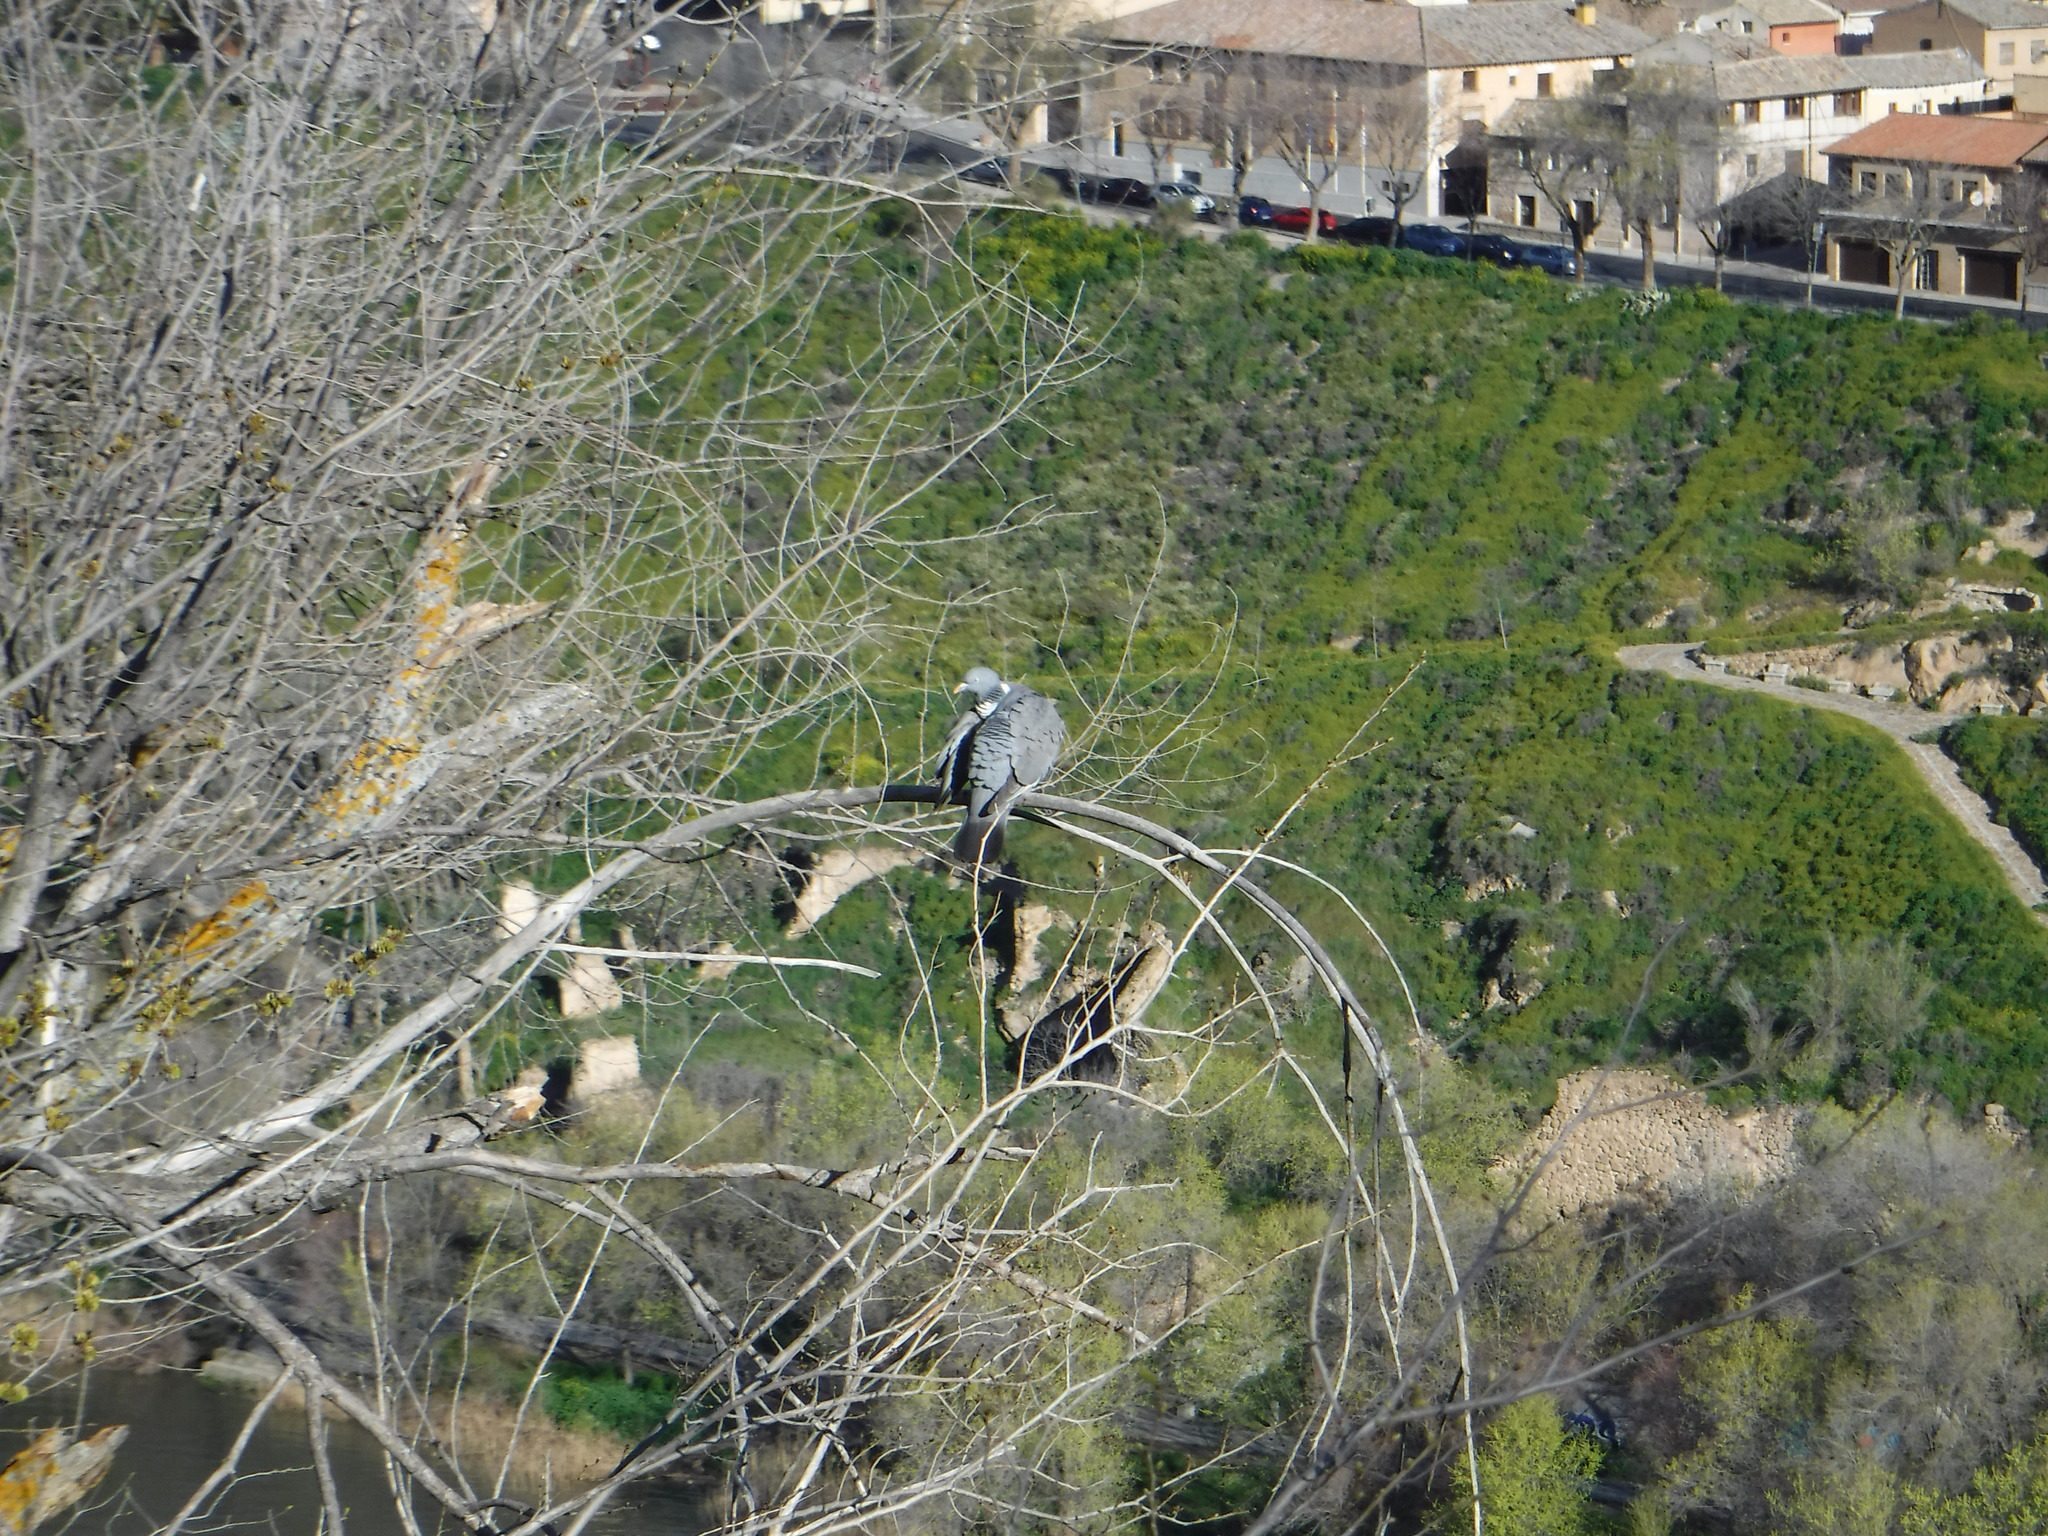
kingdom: Animalia
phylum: Chordata
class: Aves
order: Columbiformes
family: Columbidae
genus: Columba
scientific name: Columba palumbus
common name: Common wood pigeon
